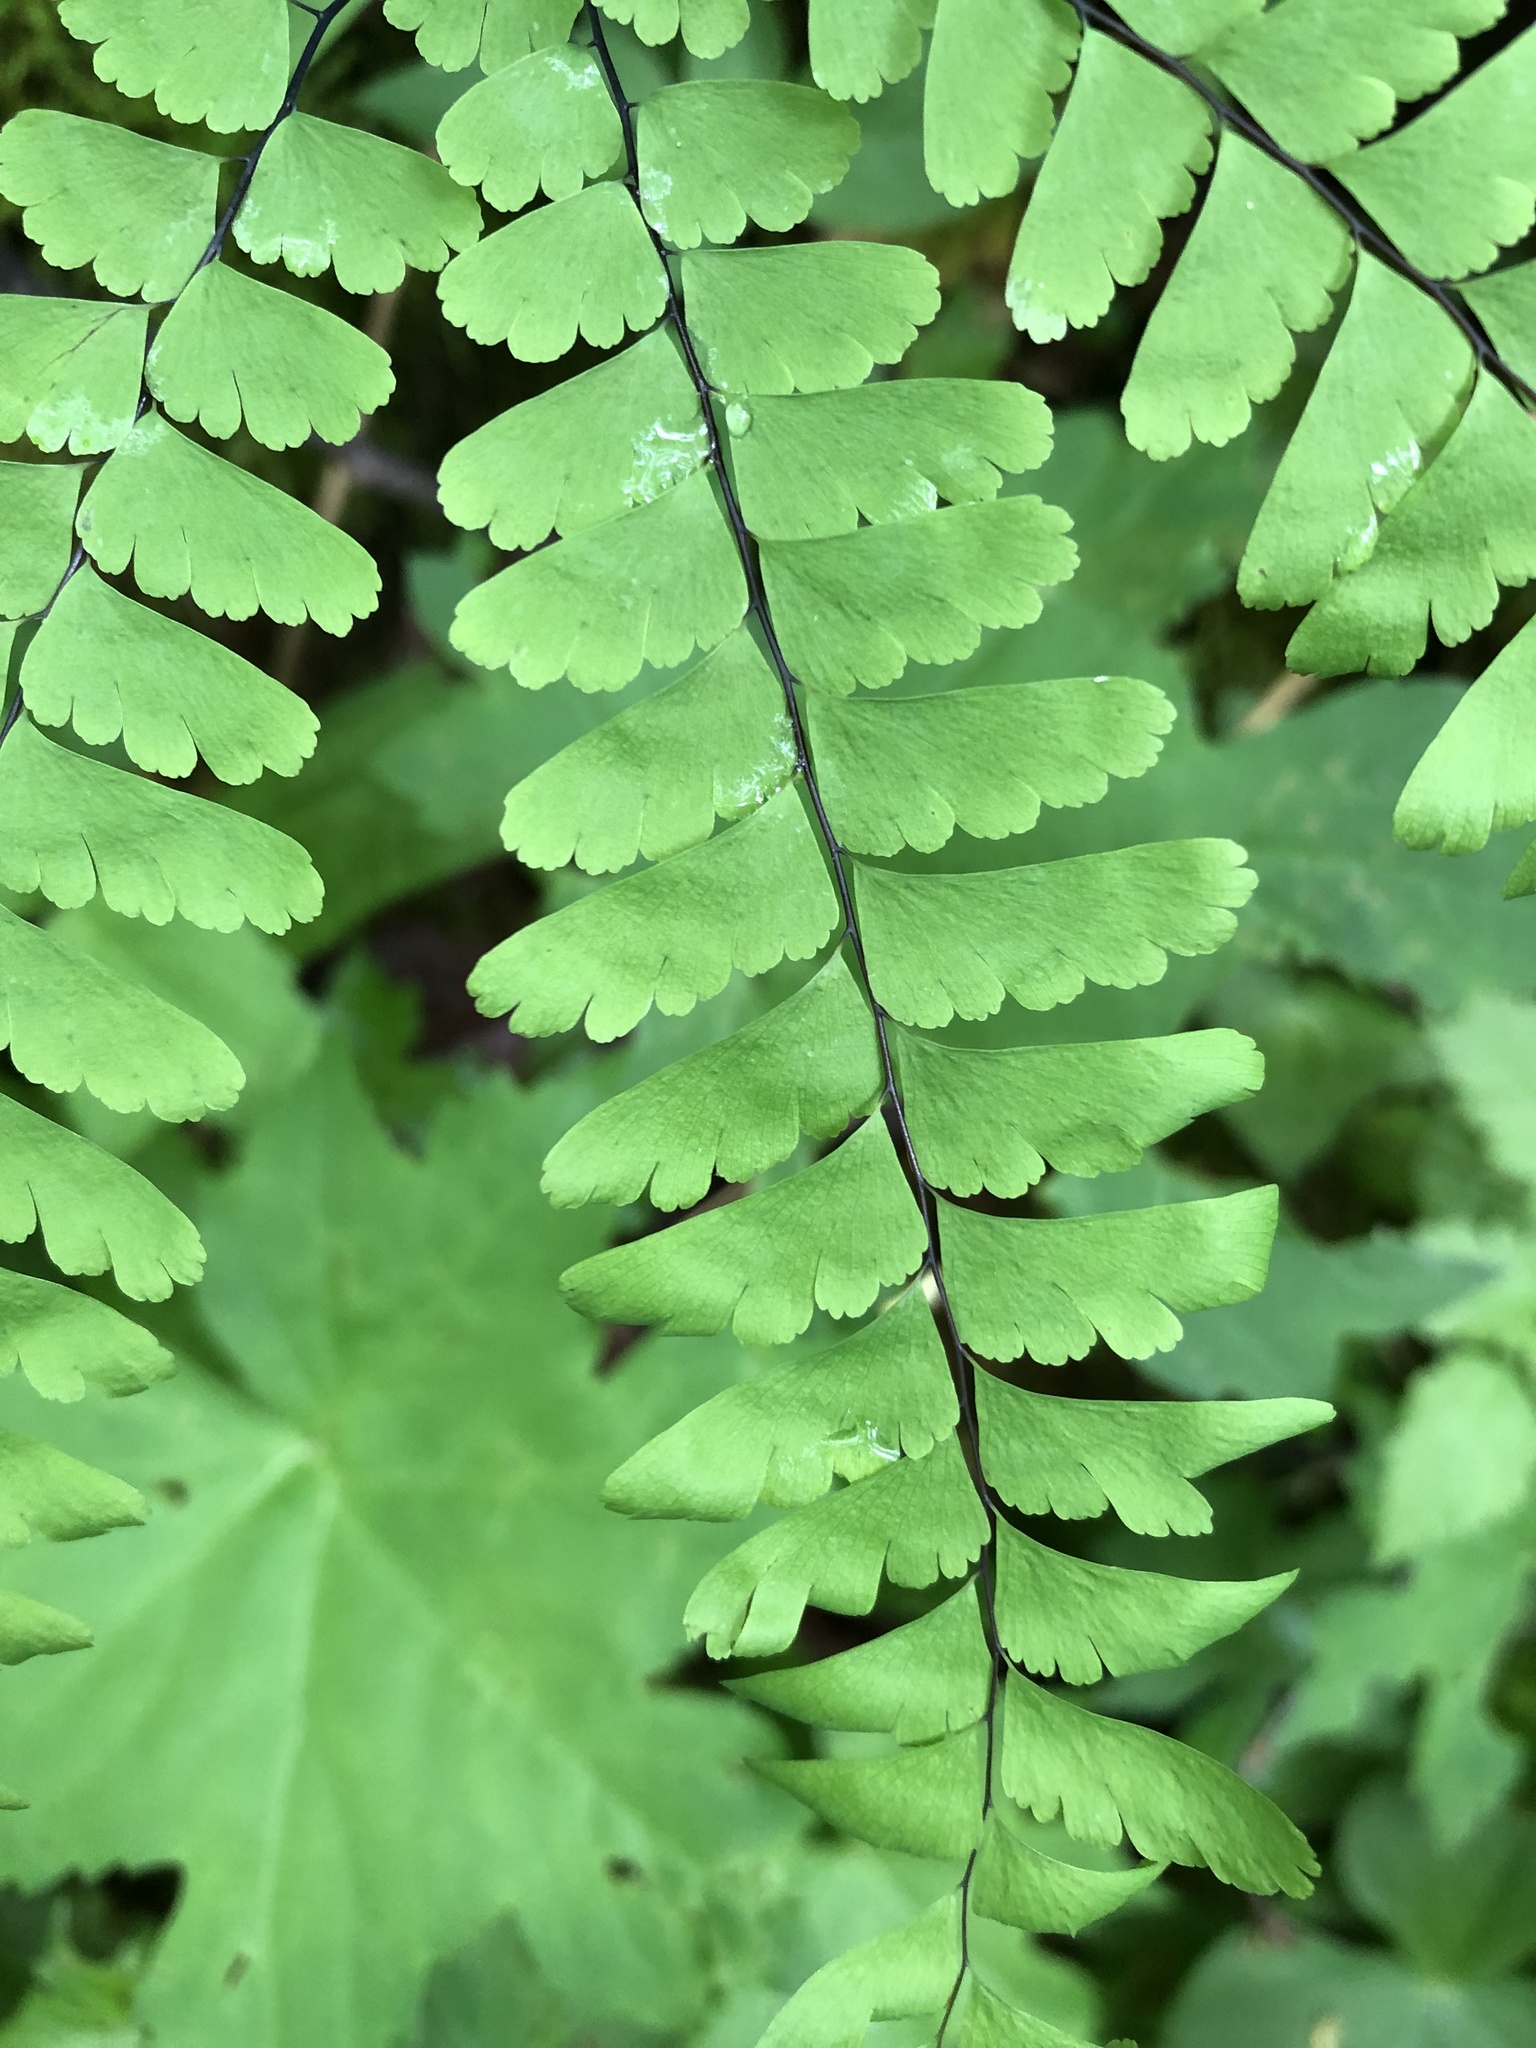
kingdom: Plantae
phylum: Tracheophyta
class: Polypodiopsida
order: Polypodiales
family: Pteridaceae
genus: Adiantum
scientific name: Adiantum pedatum
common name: Five-finger fern
